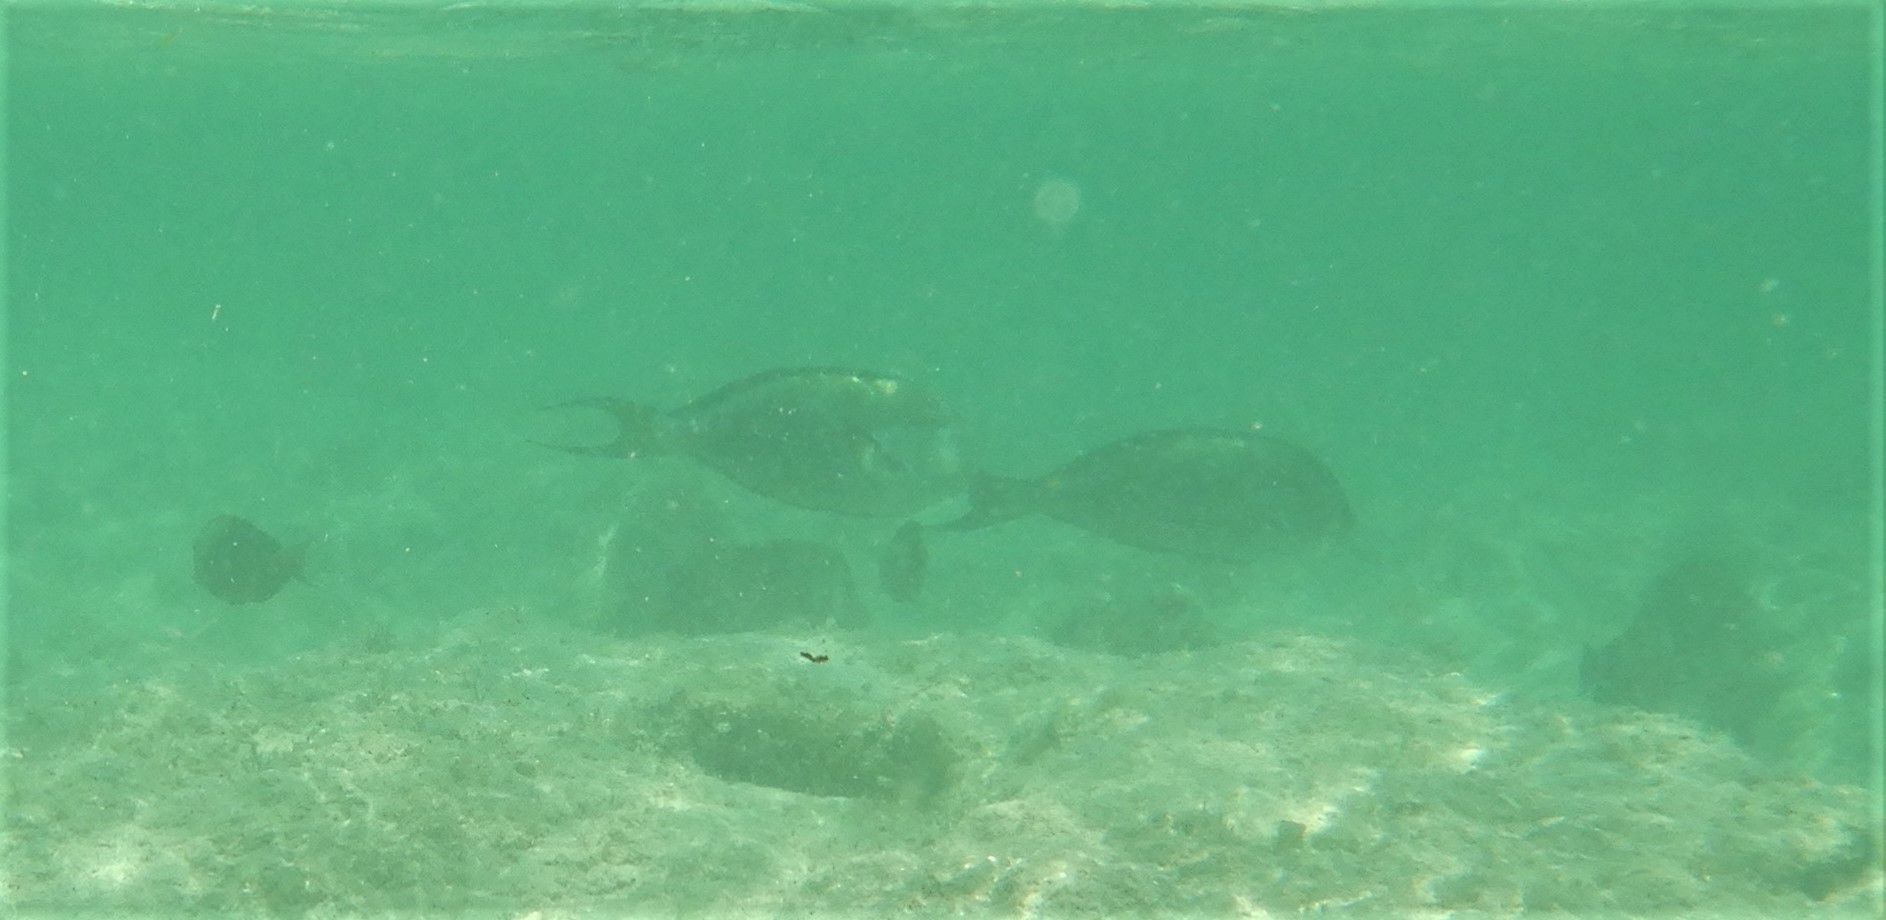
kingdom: Animalia
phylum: Chordata
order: Perciformes
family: Acanthuridae
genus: Acanthurus
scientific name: Acanthurus sohal
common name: Red sea surgeonfish
